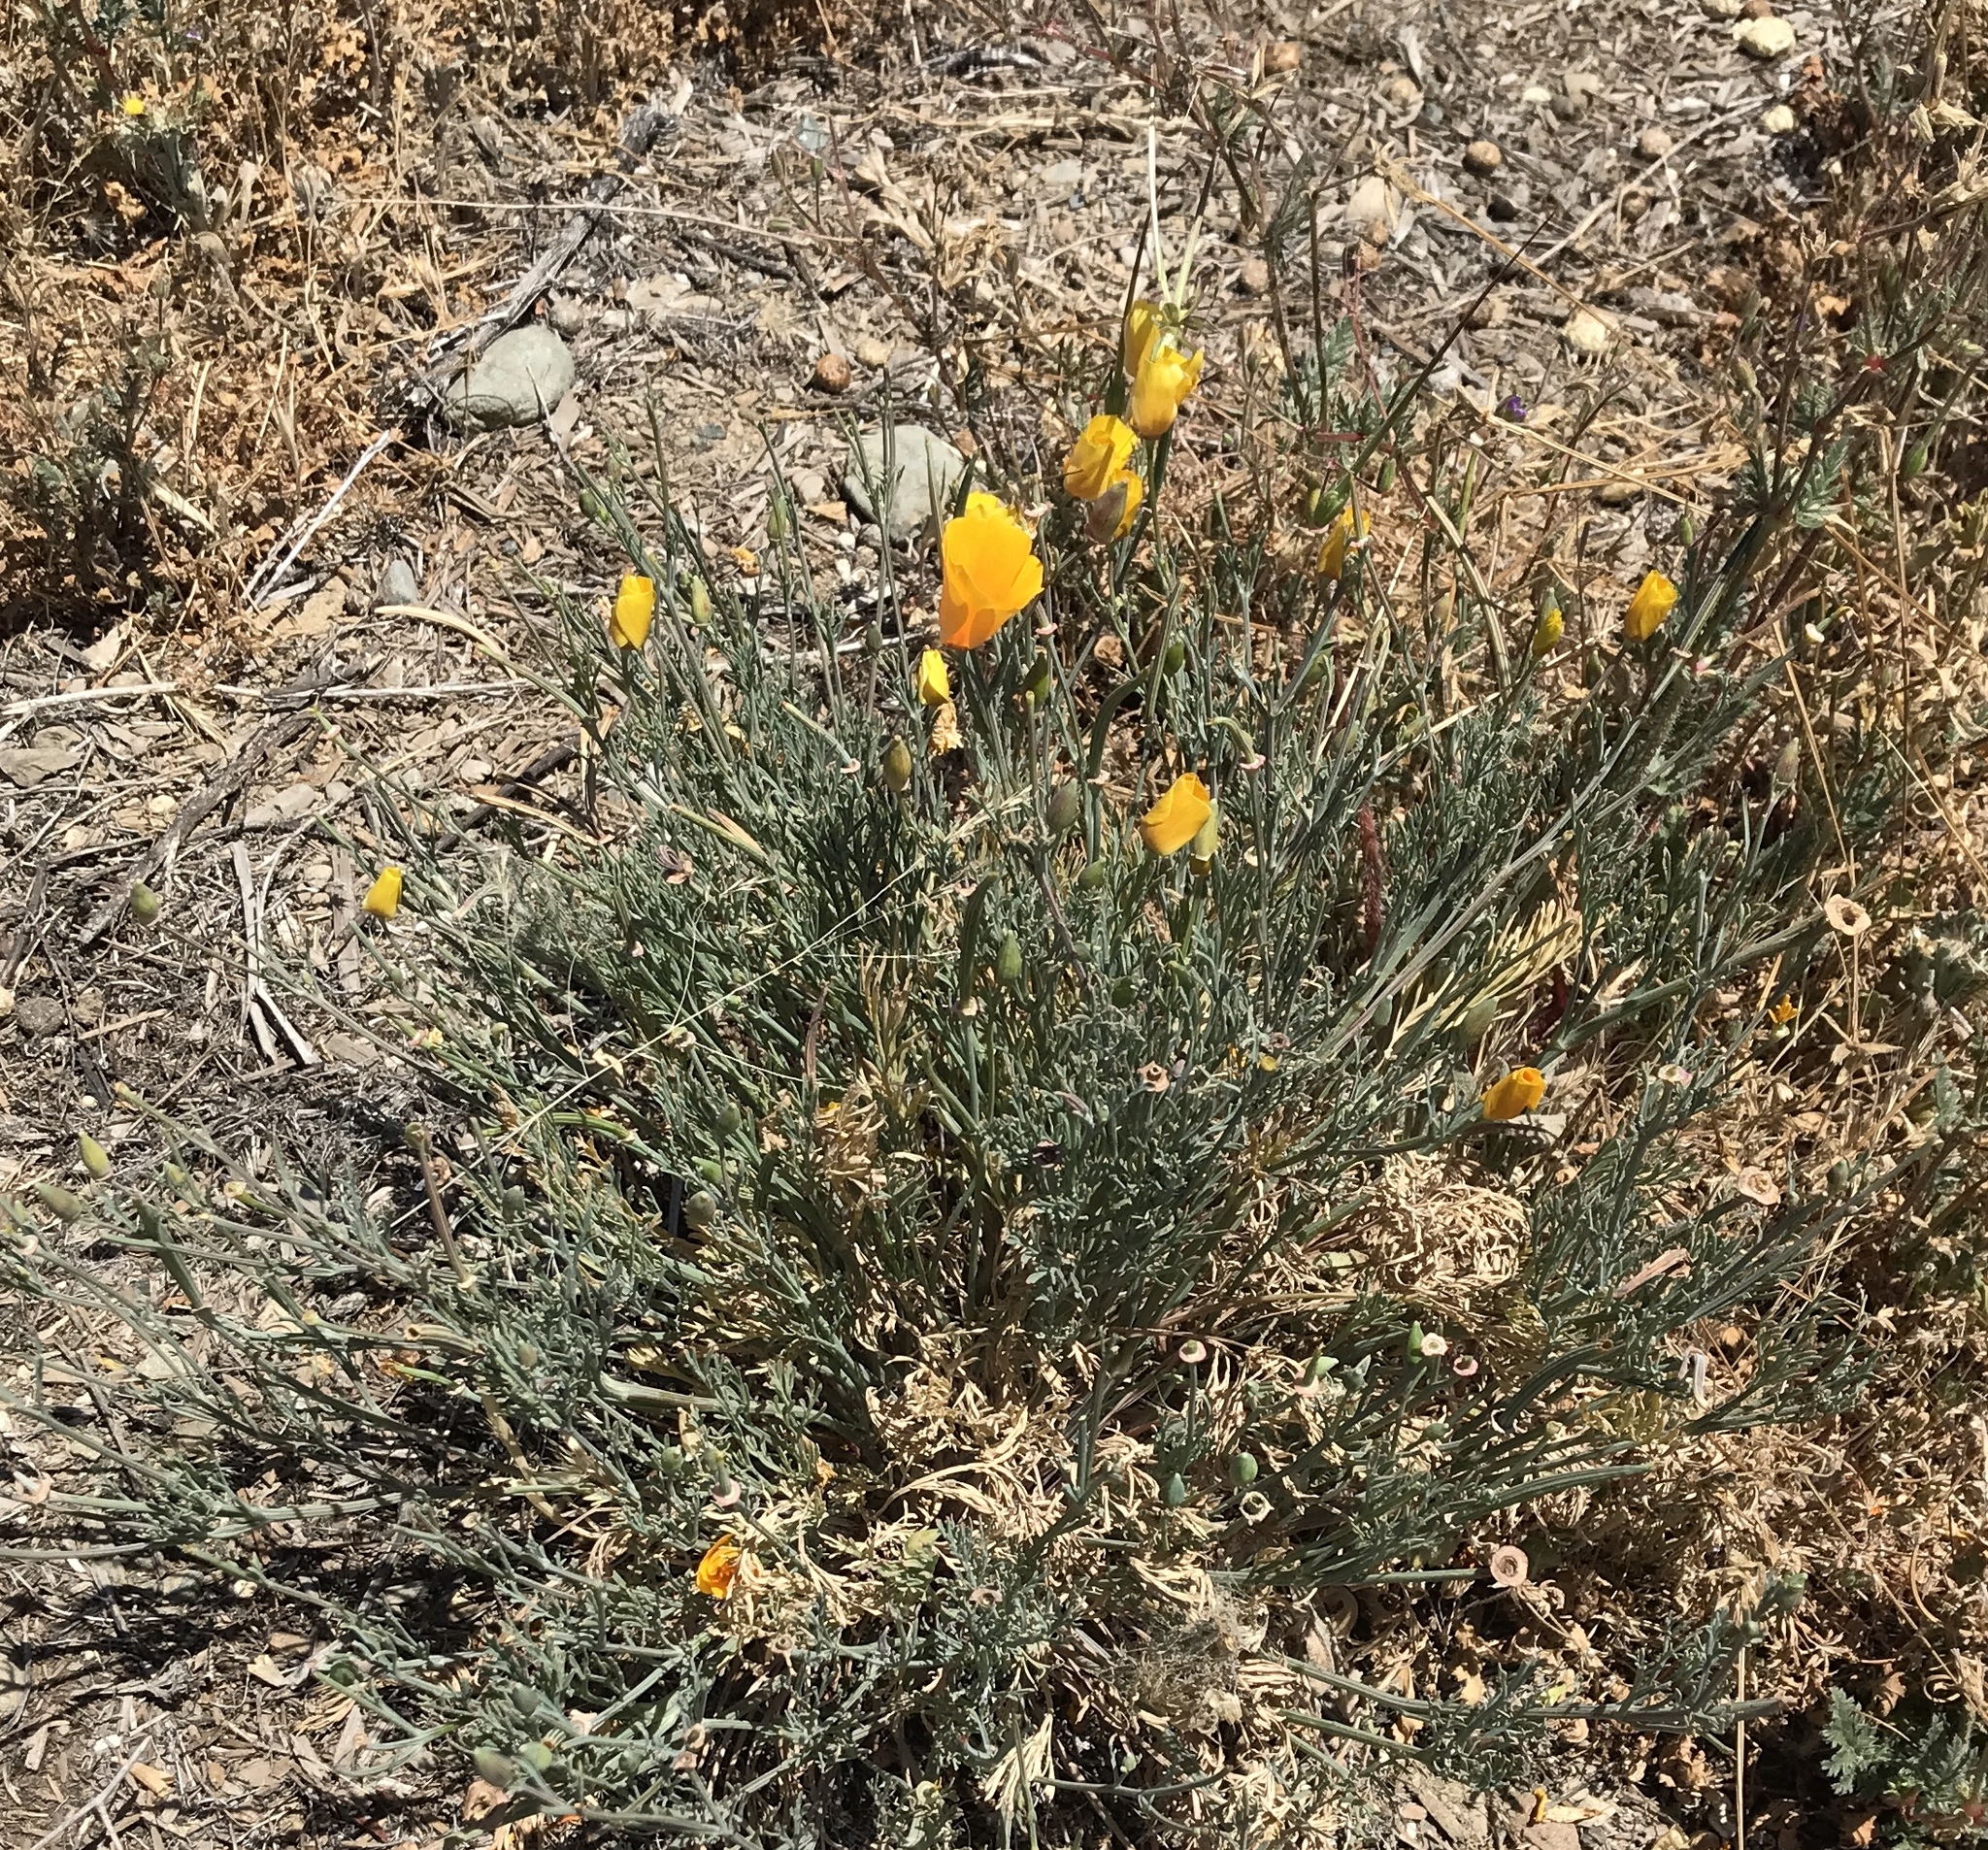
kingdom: Plantae
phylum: Tracheophyta
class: Magnoliopsida
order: Ranunculales
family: Papaveraceae
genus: Eschscholzia
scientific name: Eschscholzia californica
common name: California poppy
